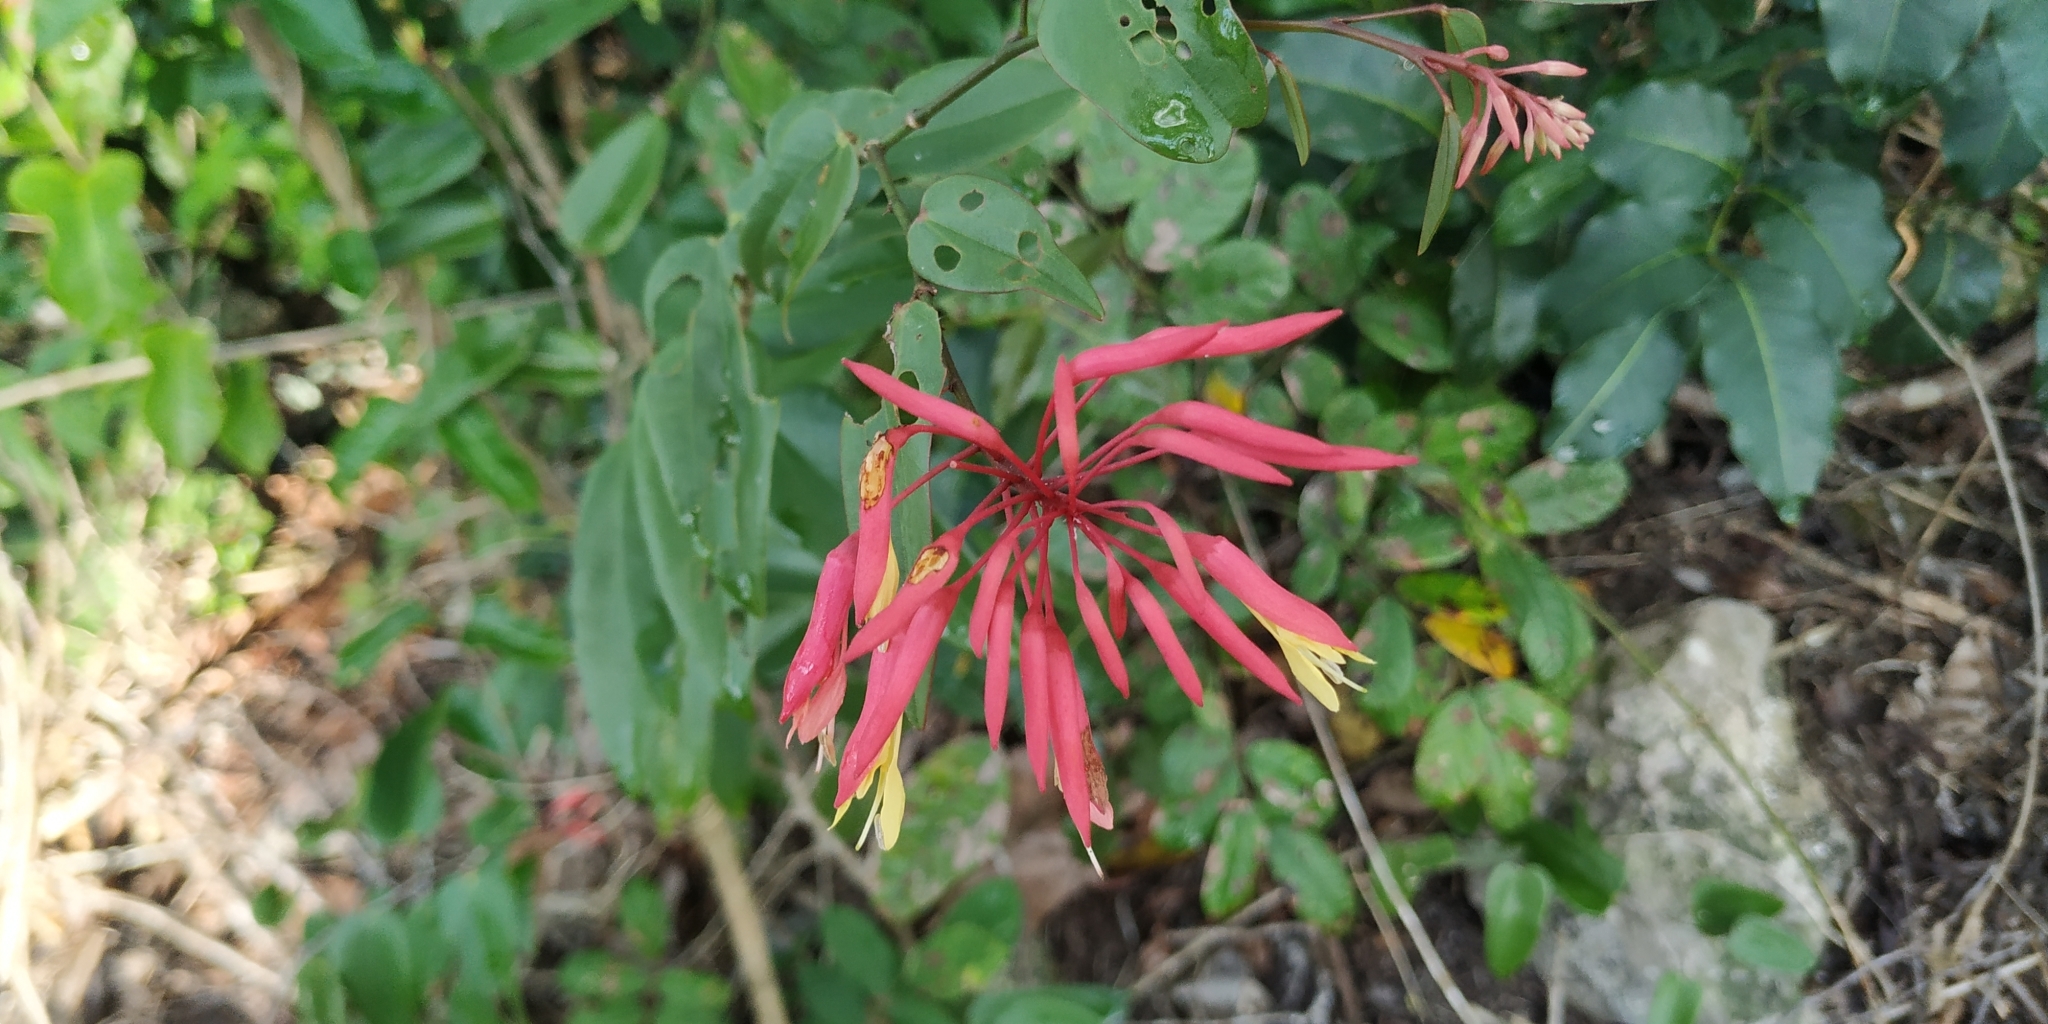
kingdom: Plantae
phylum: Tracheophyta
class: Magnoliopsida
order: Fabales
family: Fabaceae
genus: Bauhinia
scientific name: Bauhinia jenningsii
